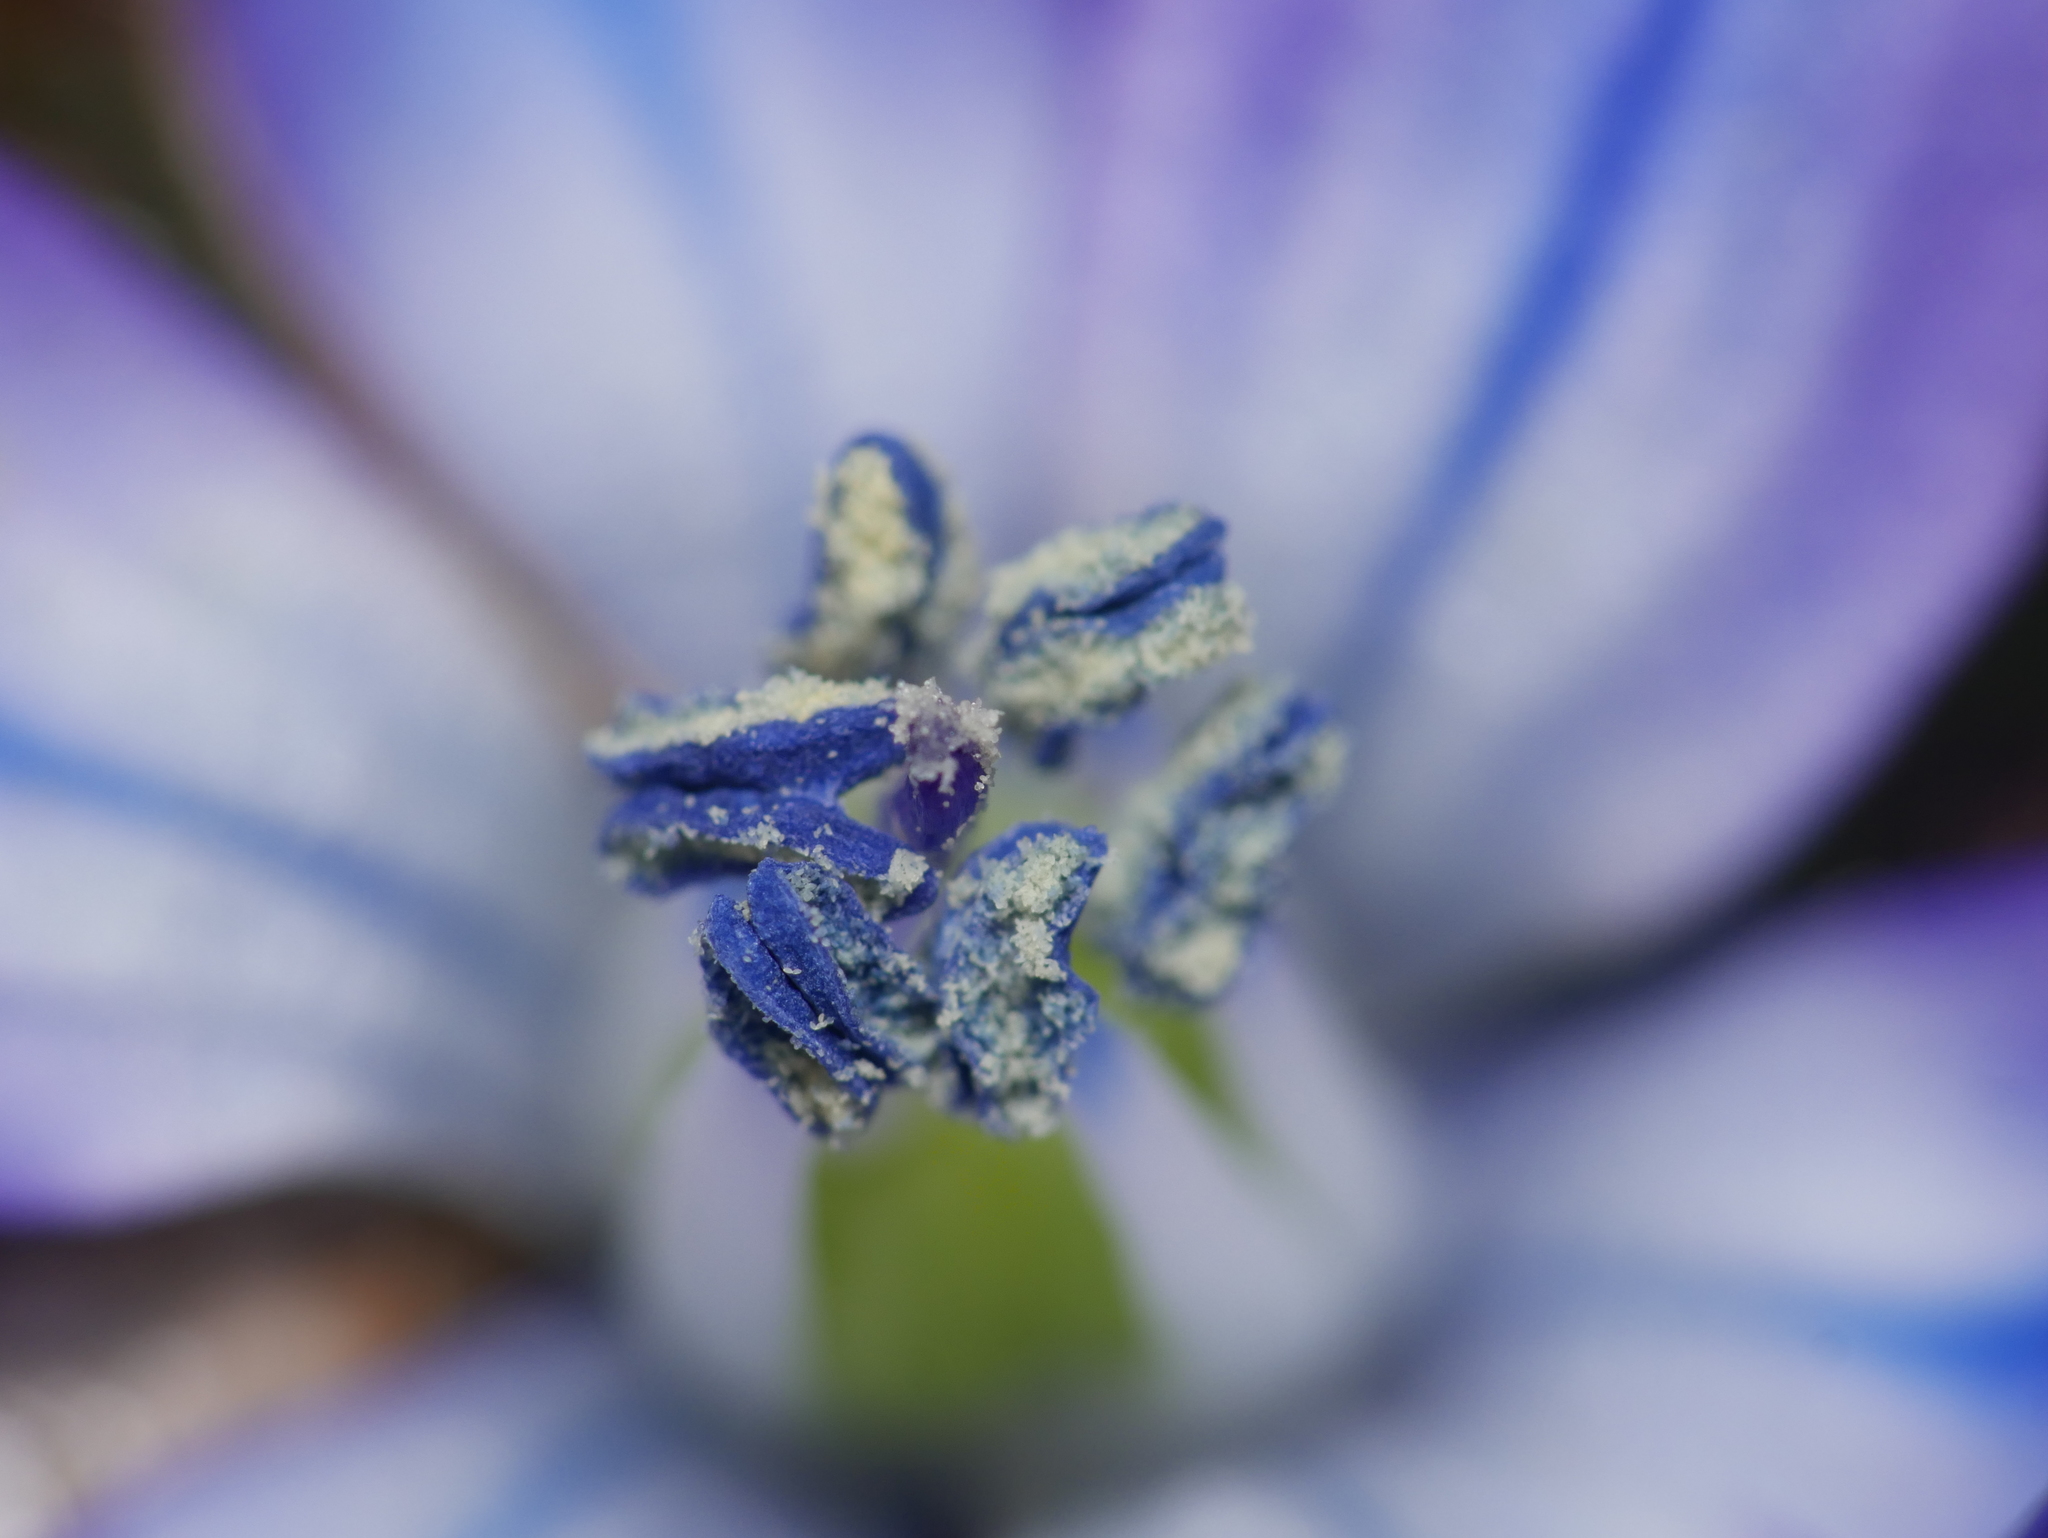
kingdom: Plantae
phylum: Tracheophyta
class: Liliopsida
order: Asparagales
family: Asparagaceae
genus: Scilla
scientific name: Scilla siberica
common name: Siberian squill
